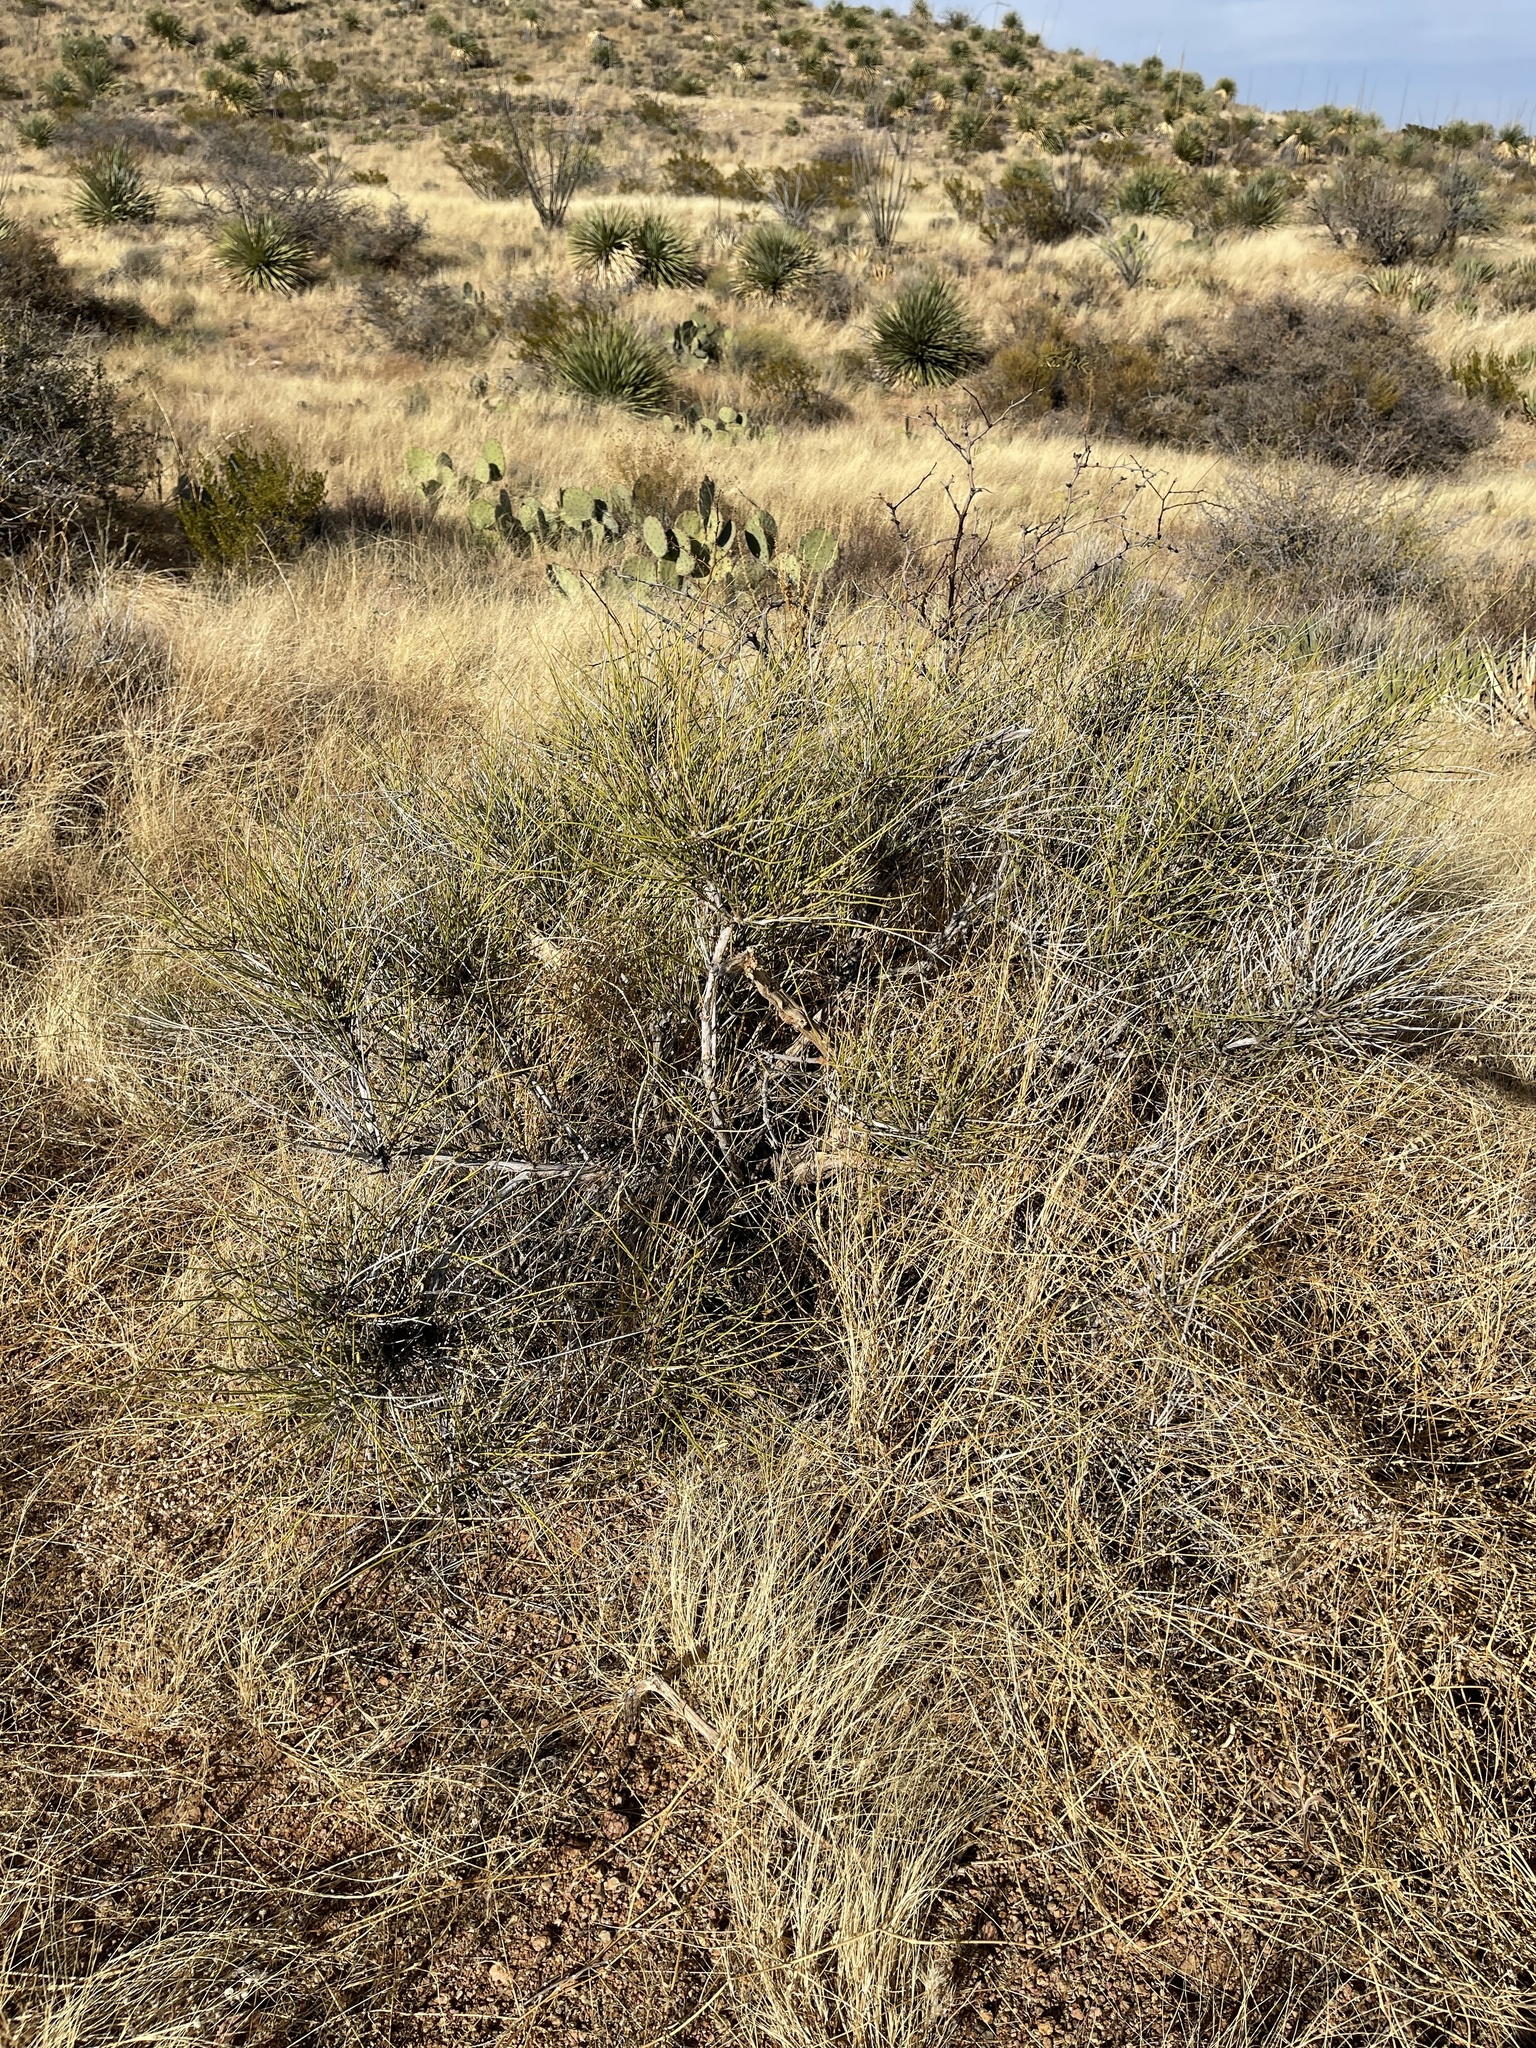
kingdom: Plantae
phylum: Tracheophyta
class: Gnetopsida
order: Ephedrales
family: Ephedraceae
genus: Ephedra
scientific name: Ephedra trifurca
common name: Mexican-tea
